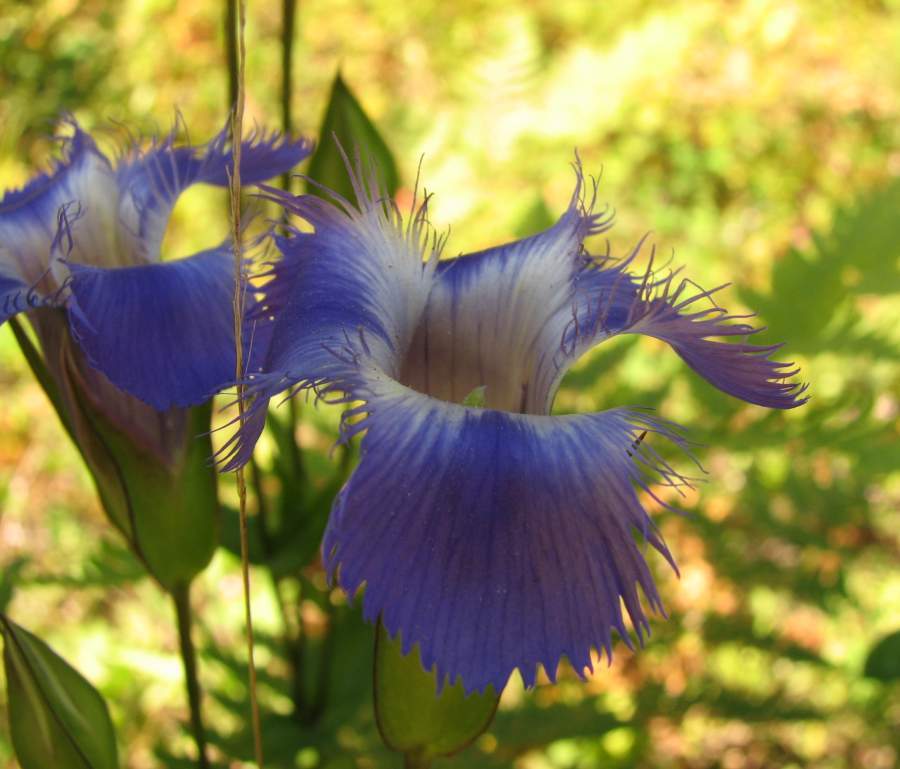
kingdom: Plantae
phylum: Tracheophyta
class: Magnoliopsida
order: Gentianales
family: Gentianaceae
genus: Gentianopsis
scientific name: Gentianopsis crinita
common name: Fringed-gentian
